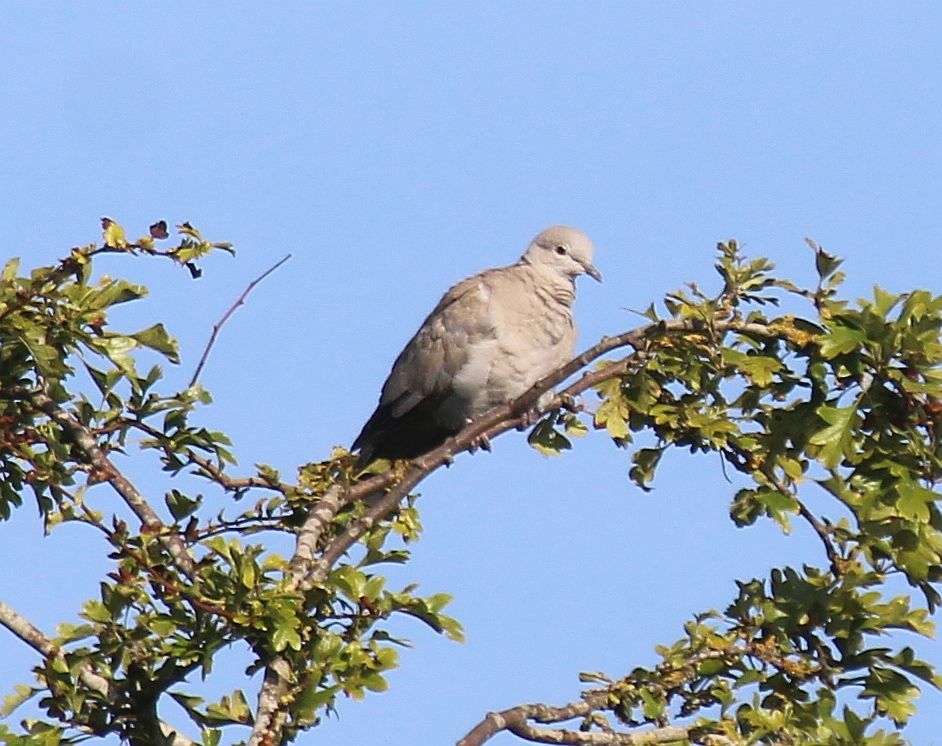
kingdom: Animalia
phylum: Chordata
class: Aves
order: Columbiformes
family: Columbidae
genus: Streptopelia
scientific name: Streptopelia decaocto
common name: Eurasian collared dove
